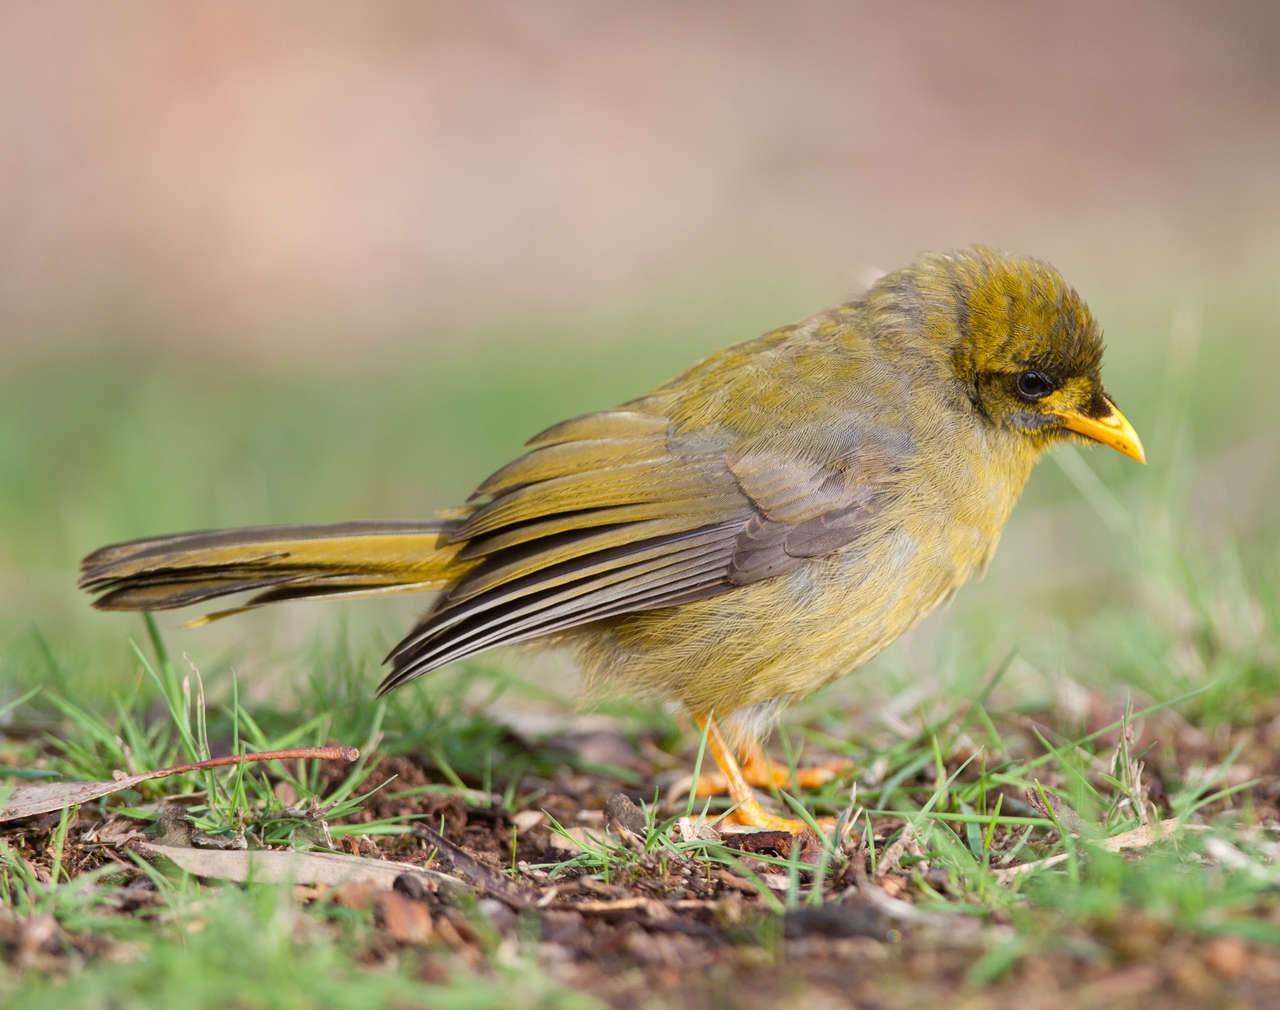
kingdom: Animalia
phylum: Chordata
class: Aves
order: Passeriformes
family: Meliphagidae
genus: Manorina
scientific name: Manorina melanophrys
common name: Bell miner
